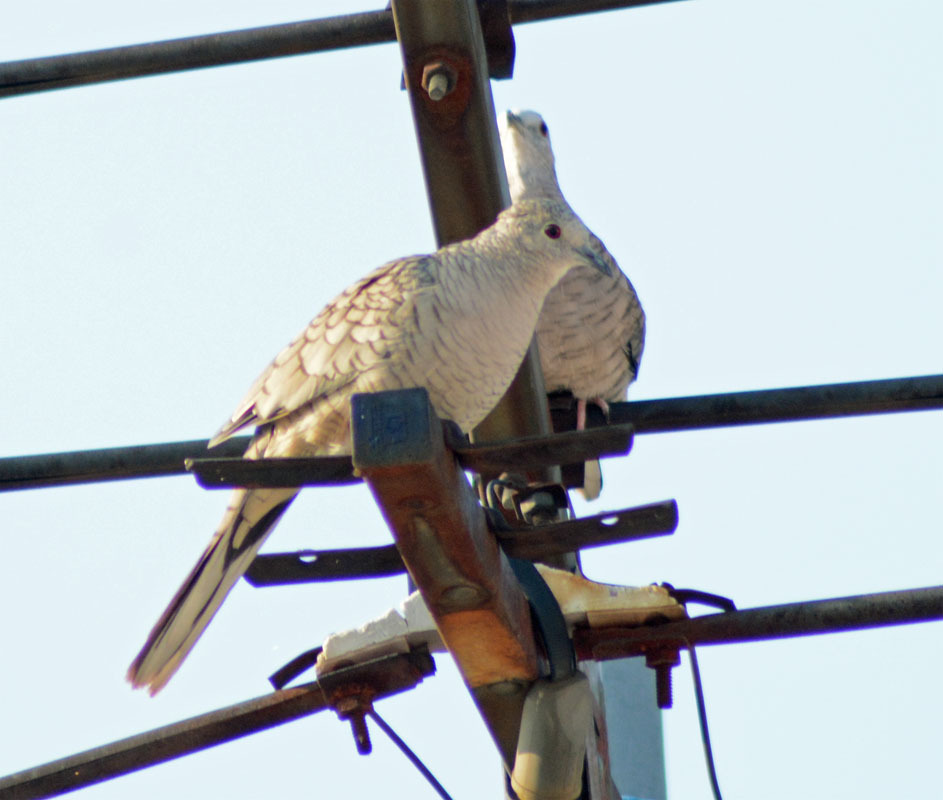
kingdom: Animalia
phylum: Chordata
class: Aves
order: Columbiformes
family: Columbidae
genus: Columbina
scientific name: Columbina inca
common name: Inca dove
